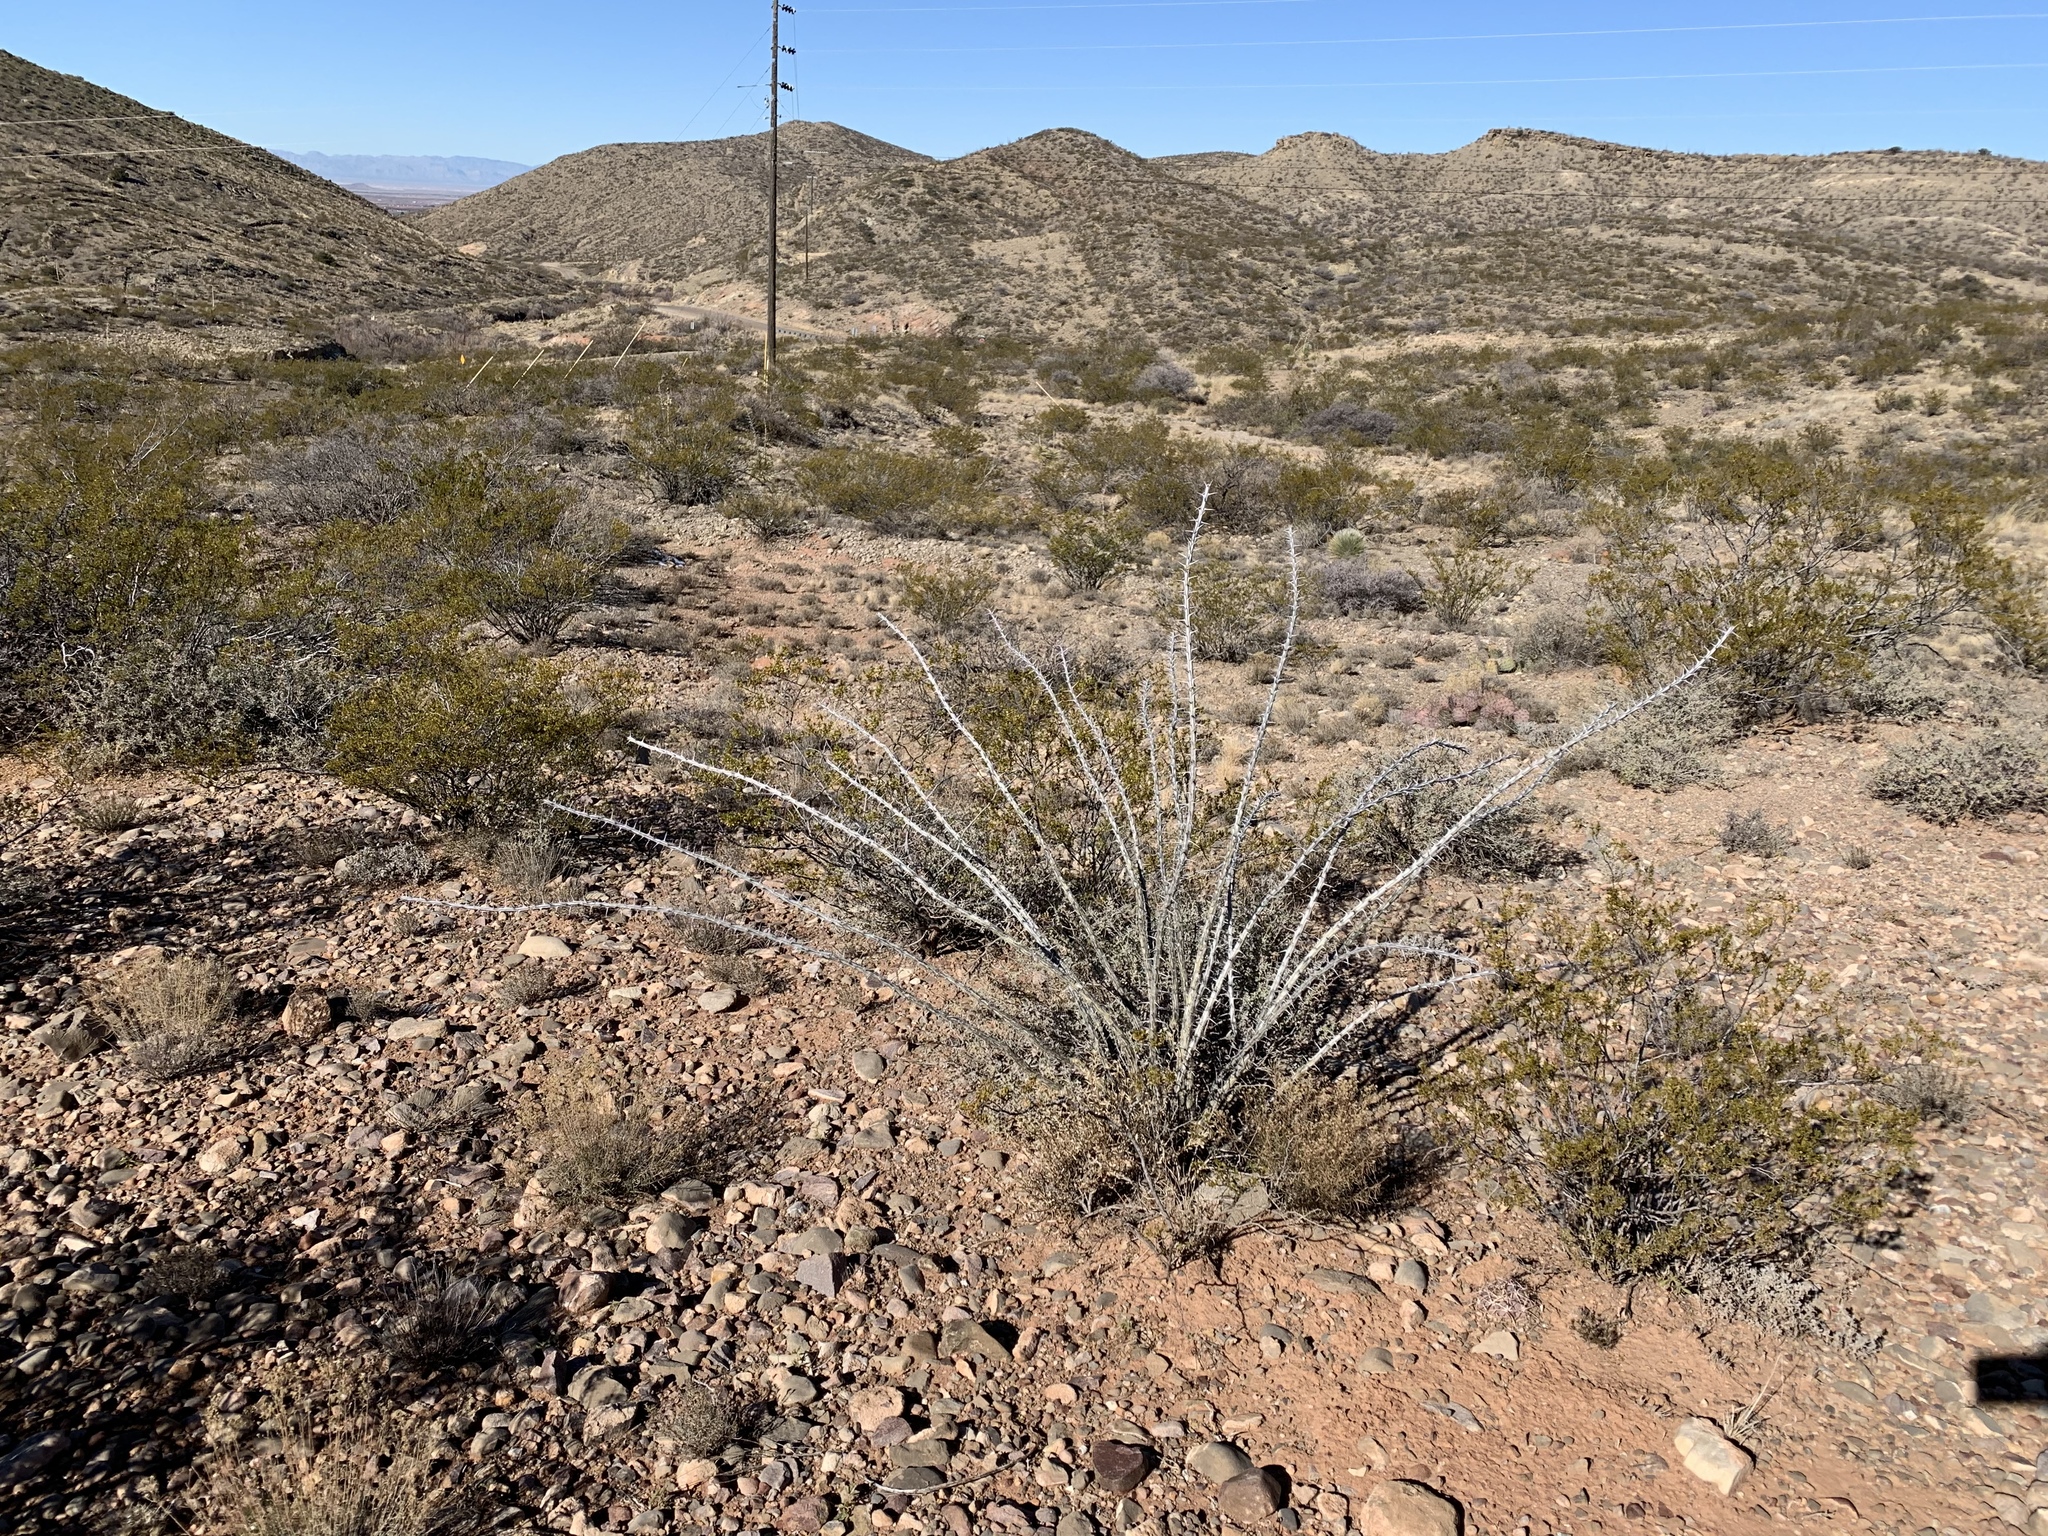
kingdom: Plantae
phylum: Tracheophyta
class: Magnoliopsida
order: Ericales
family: Fouquieriaceae
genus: Fouquieria
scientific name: Fouquieria splendens
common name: Vine-cactus
